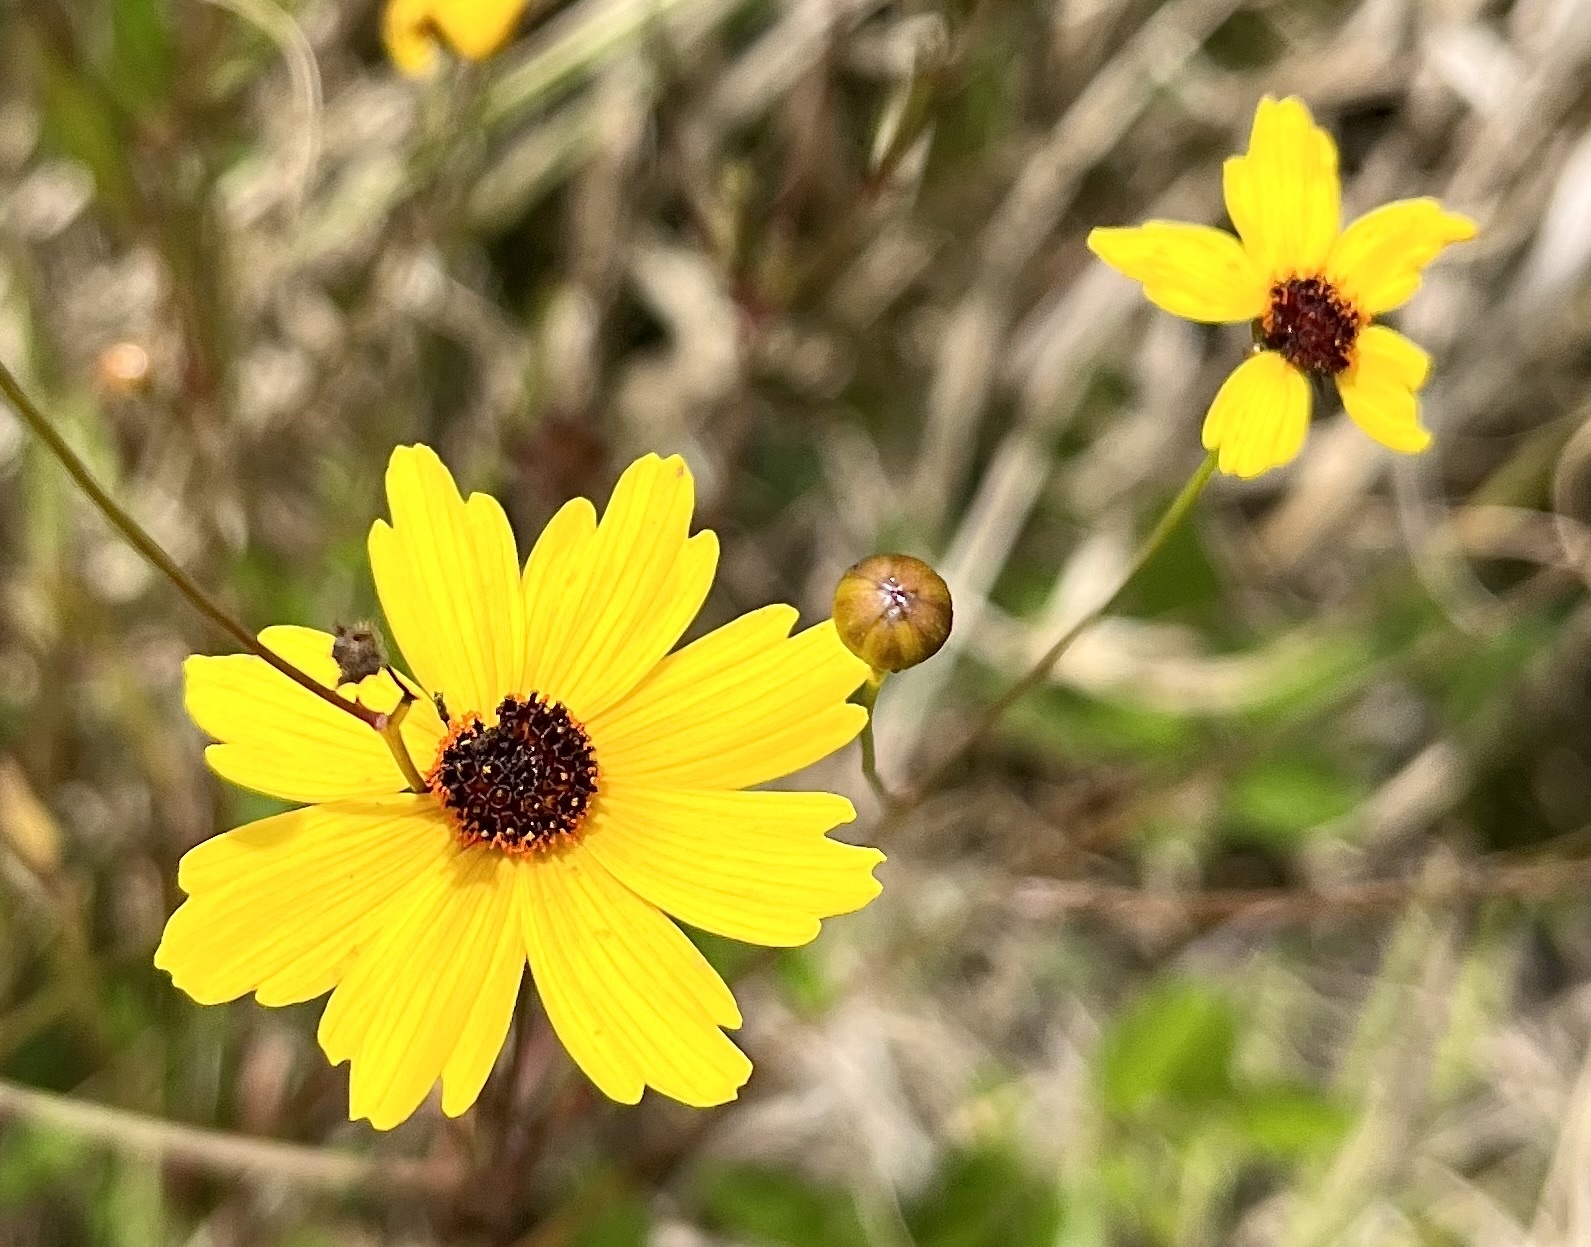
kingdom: Plantae
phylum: Tracheophyta
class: Magnoliopsida
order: Asterales
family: Asteraceae
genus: Coreopsis
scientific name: Coreopsis leavenworthii
